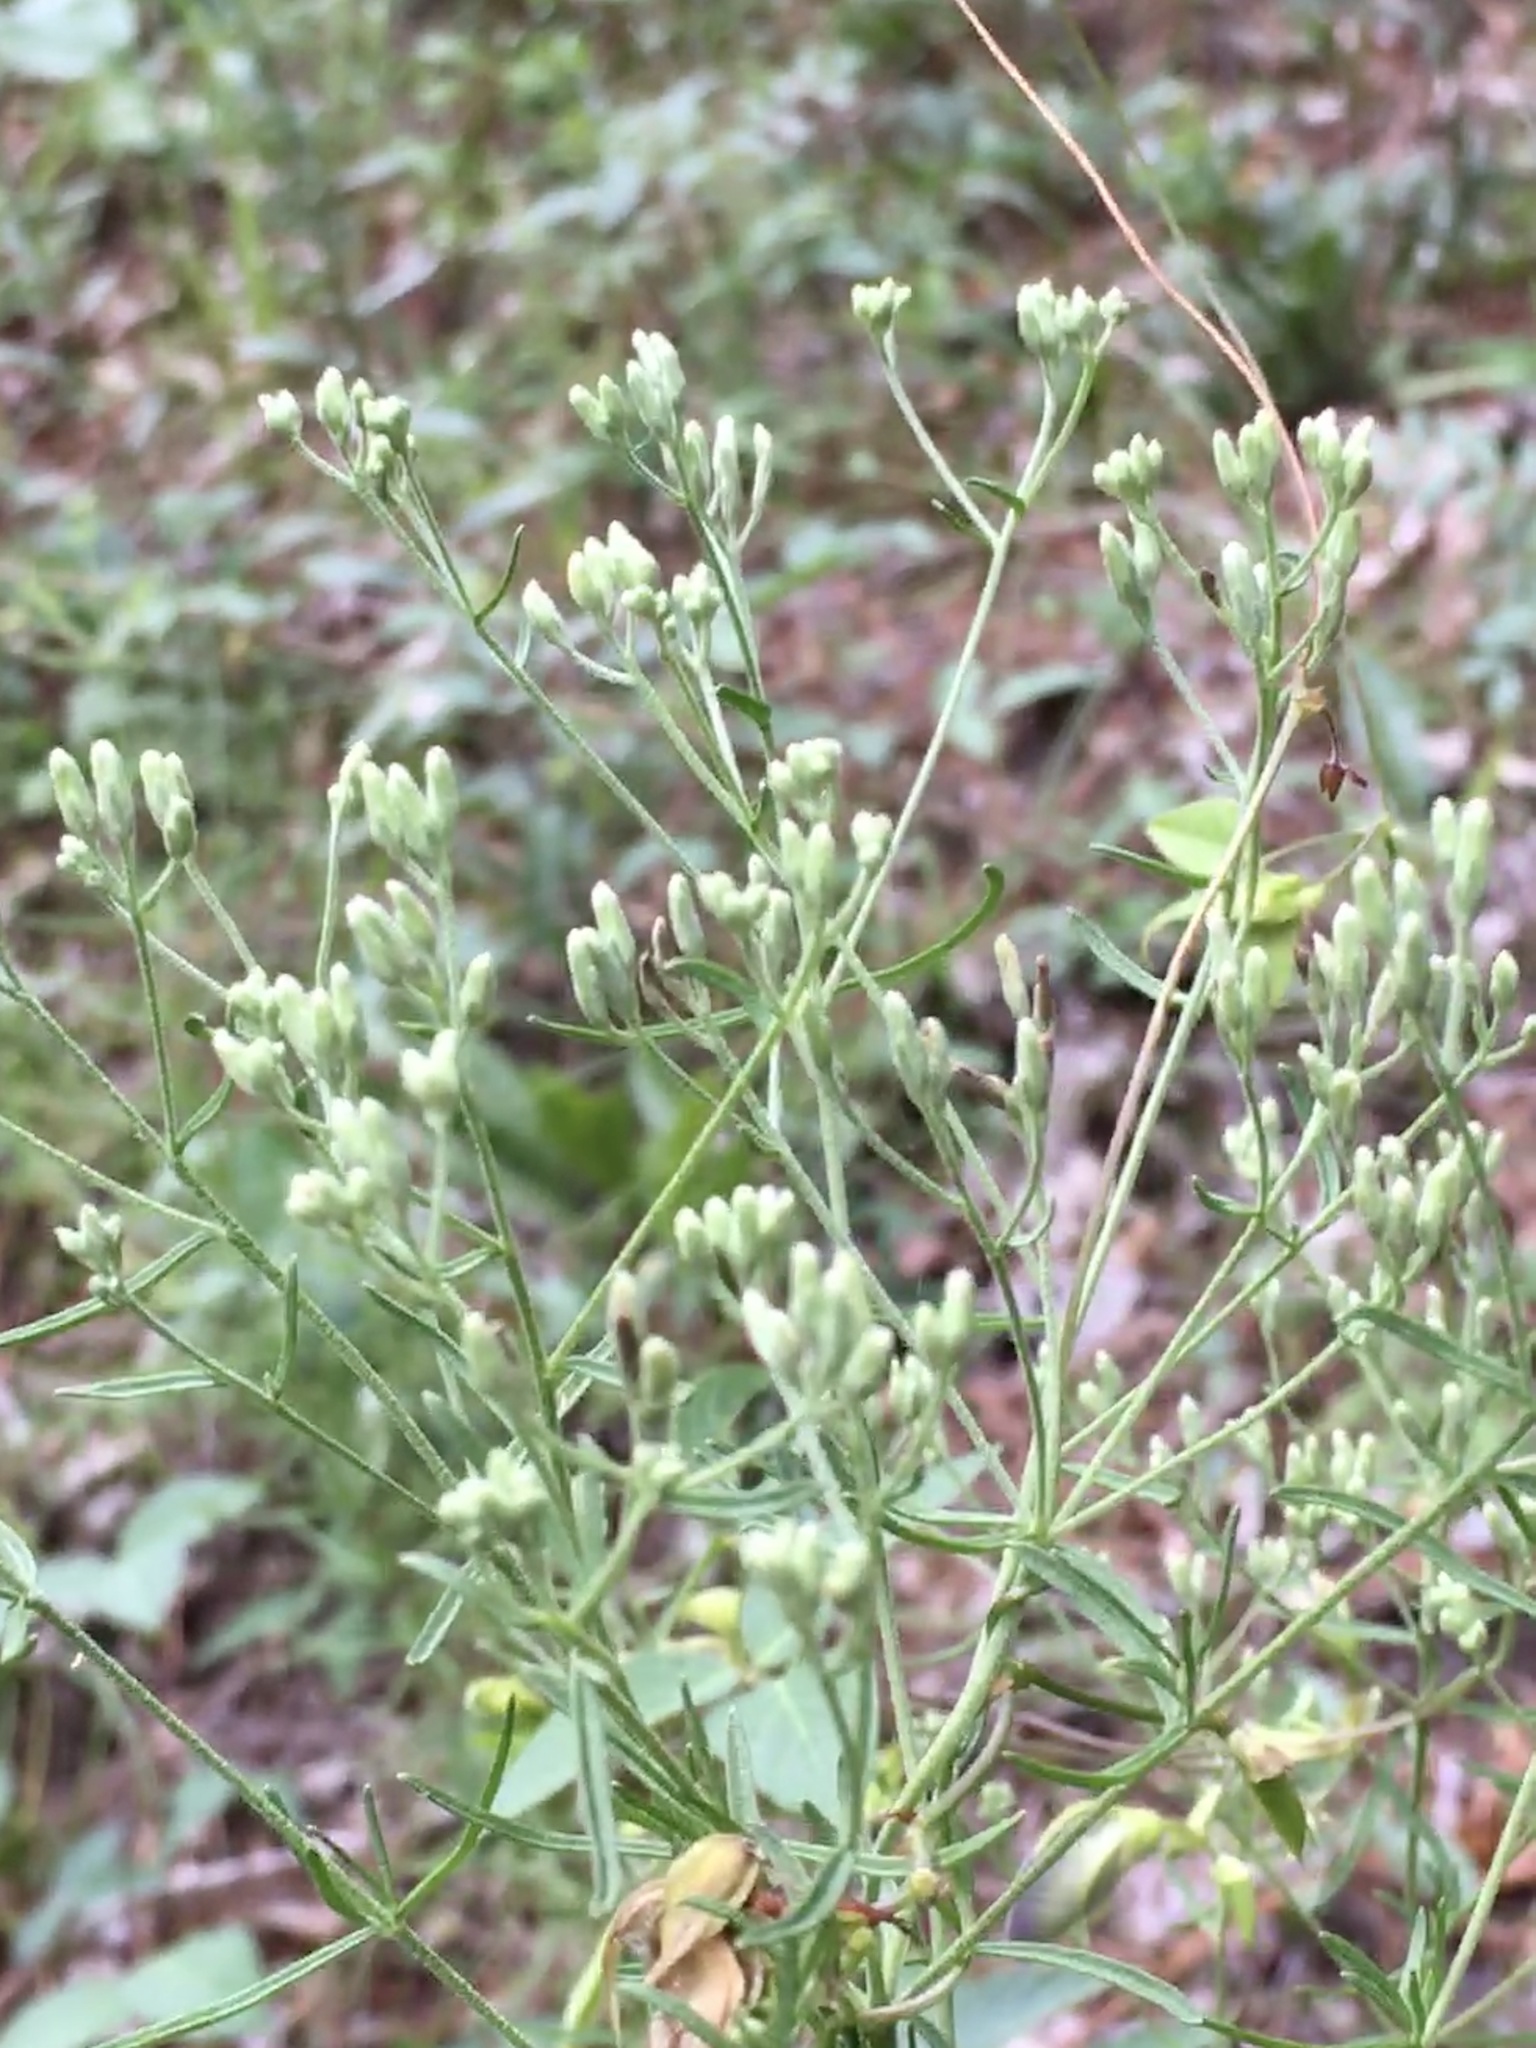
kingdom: Plantae
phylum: Tracheophyta
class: Magnoliopsida
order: Asterales
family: Asteraceae
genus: Eupatorium
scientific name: Eupatorium hyssopifolium
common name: Hyssop-leaf thoroughwort
